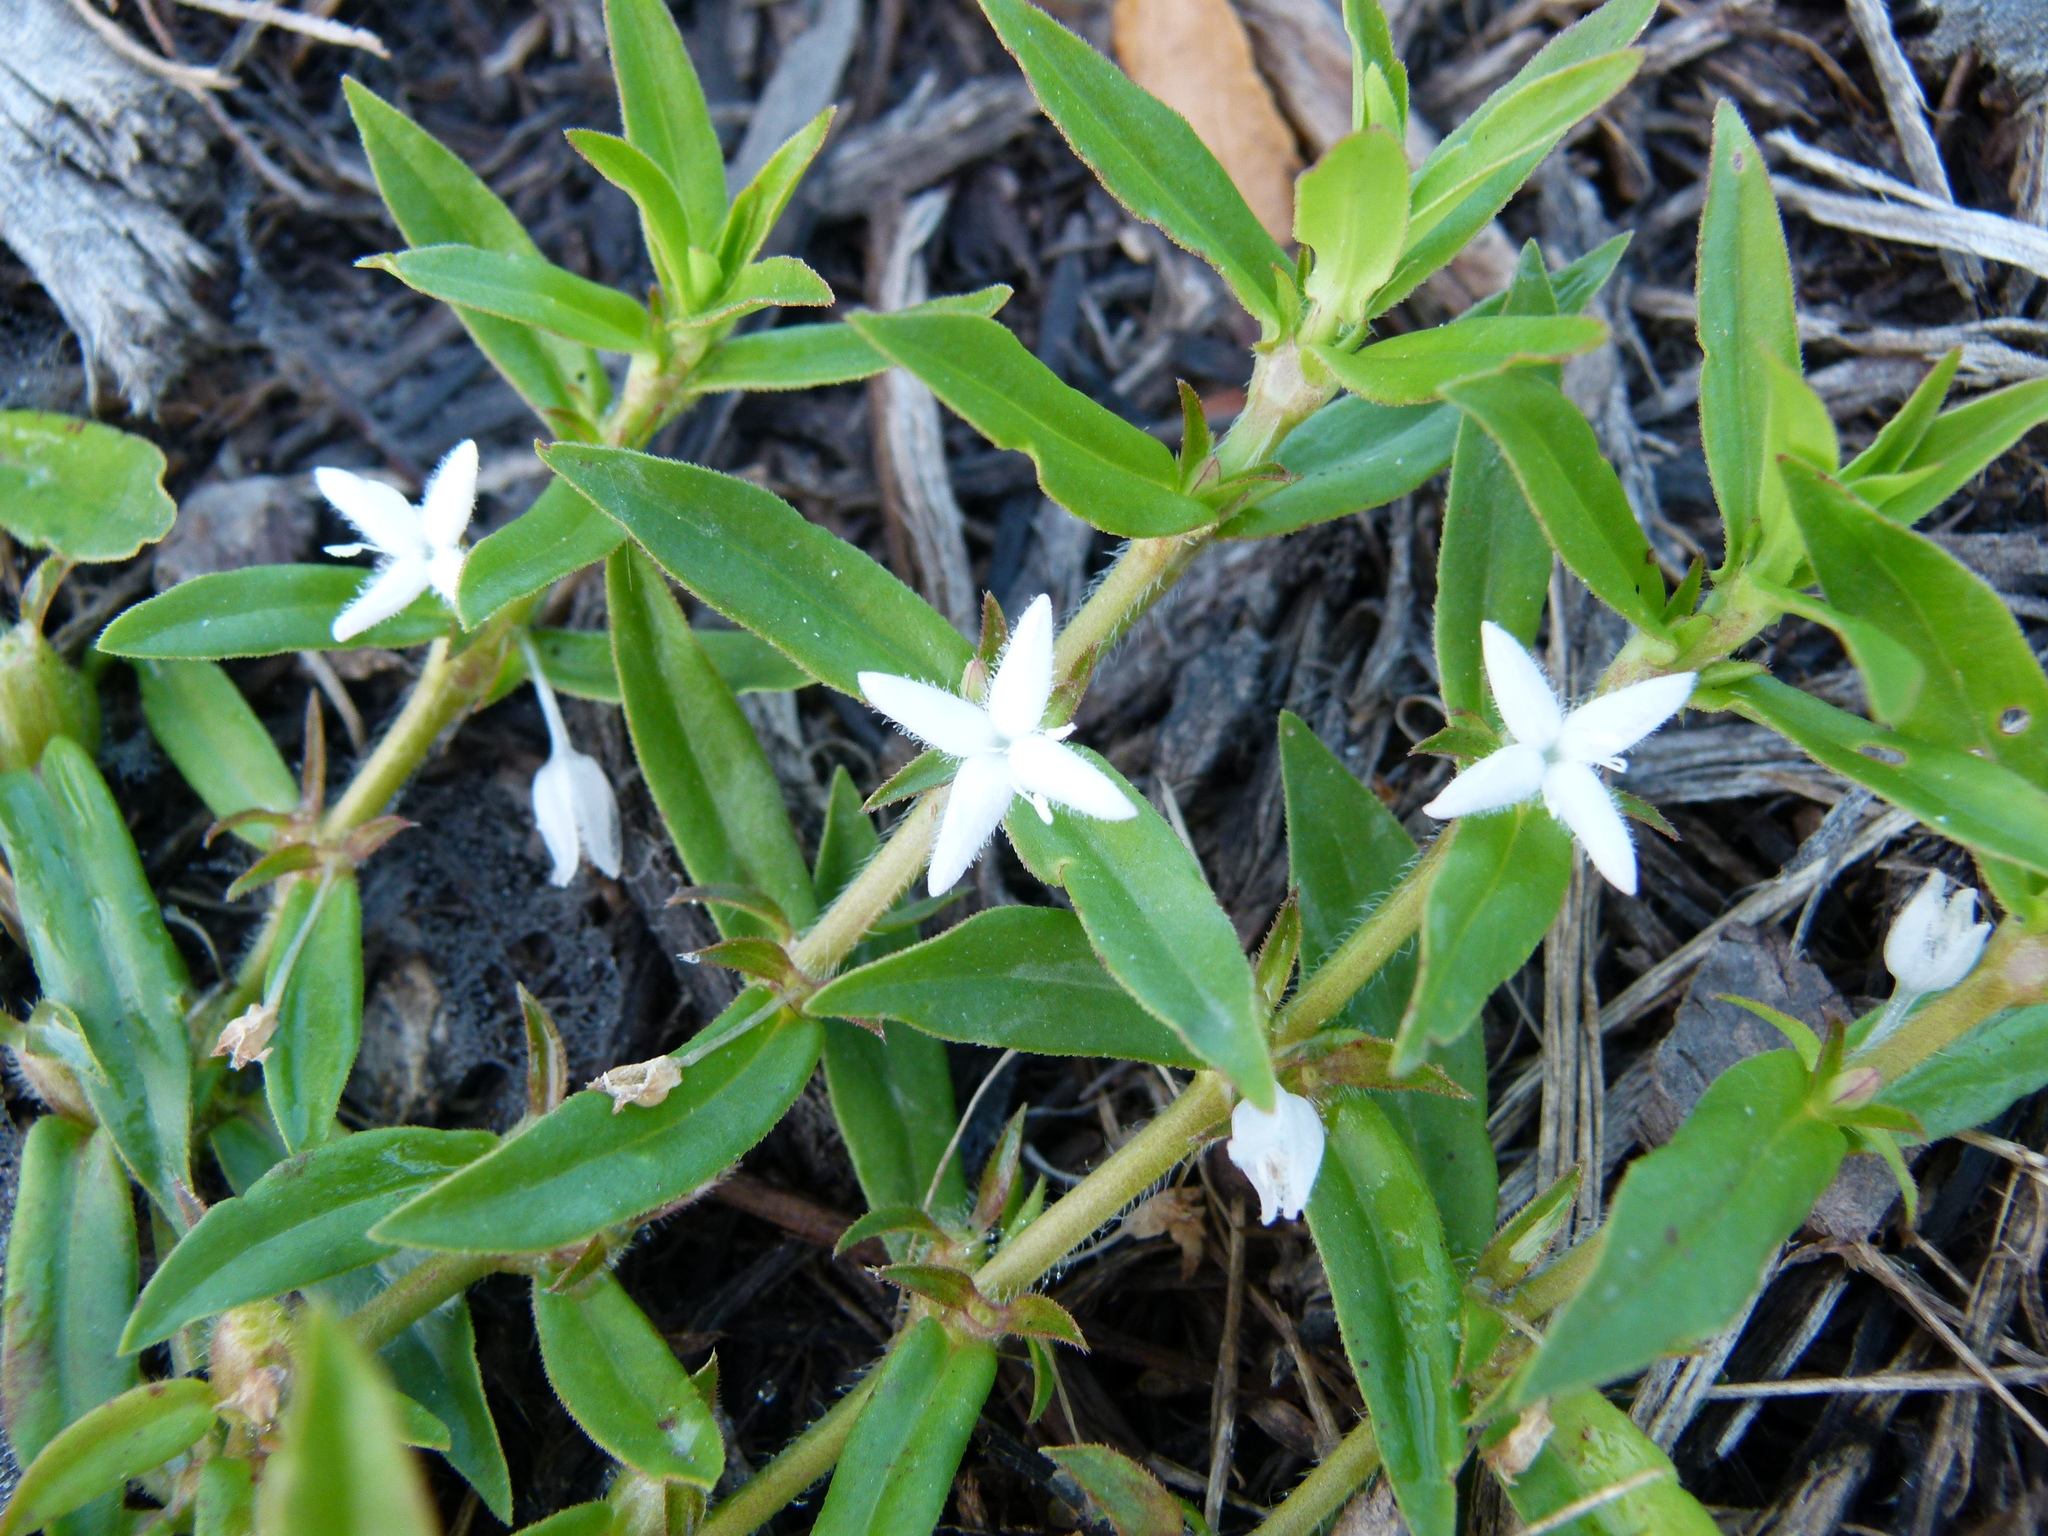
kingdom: Plantae
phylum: Tracheophyta
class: Magnoliopsida
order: Gentianales
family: Rubiaceae
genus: Diodia
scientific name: Diodia virginiana
